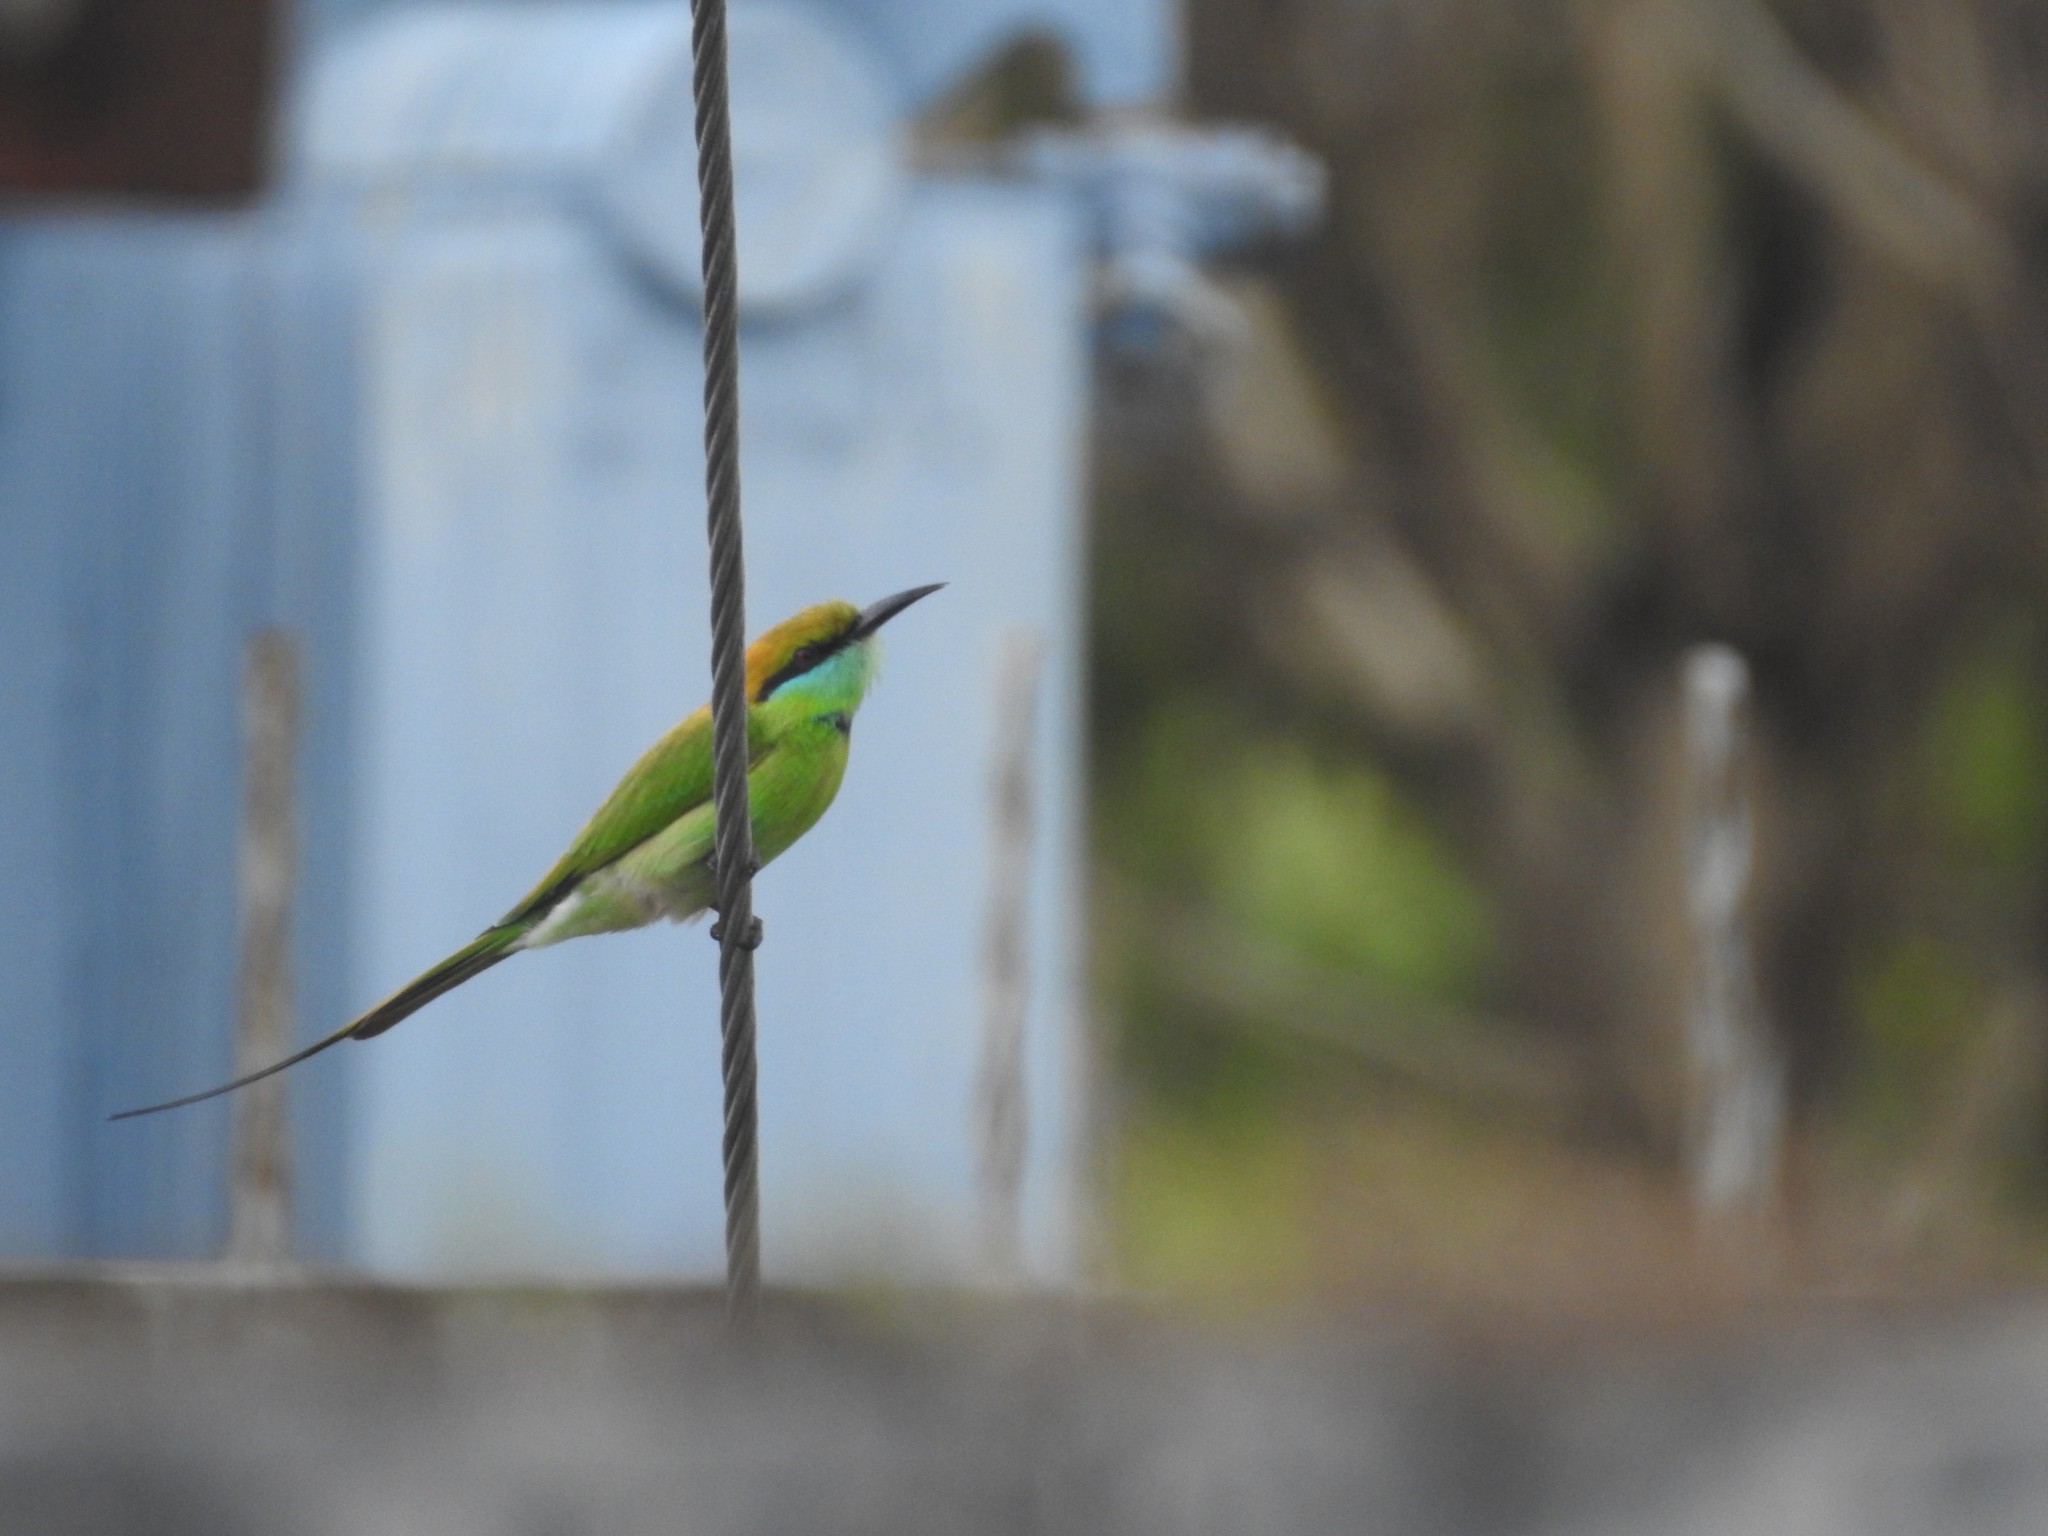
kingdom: Animalia
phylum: Chordata
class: Aves
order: Coraciiformes
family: Meropidae
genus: Merops
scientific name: Merops orientalis
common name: Green bee-eater
